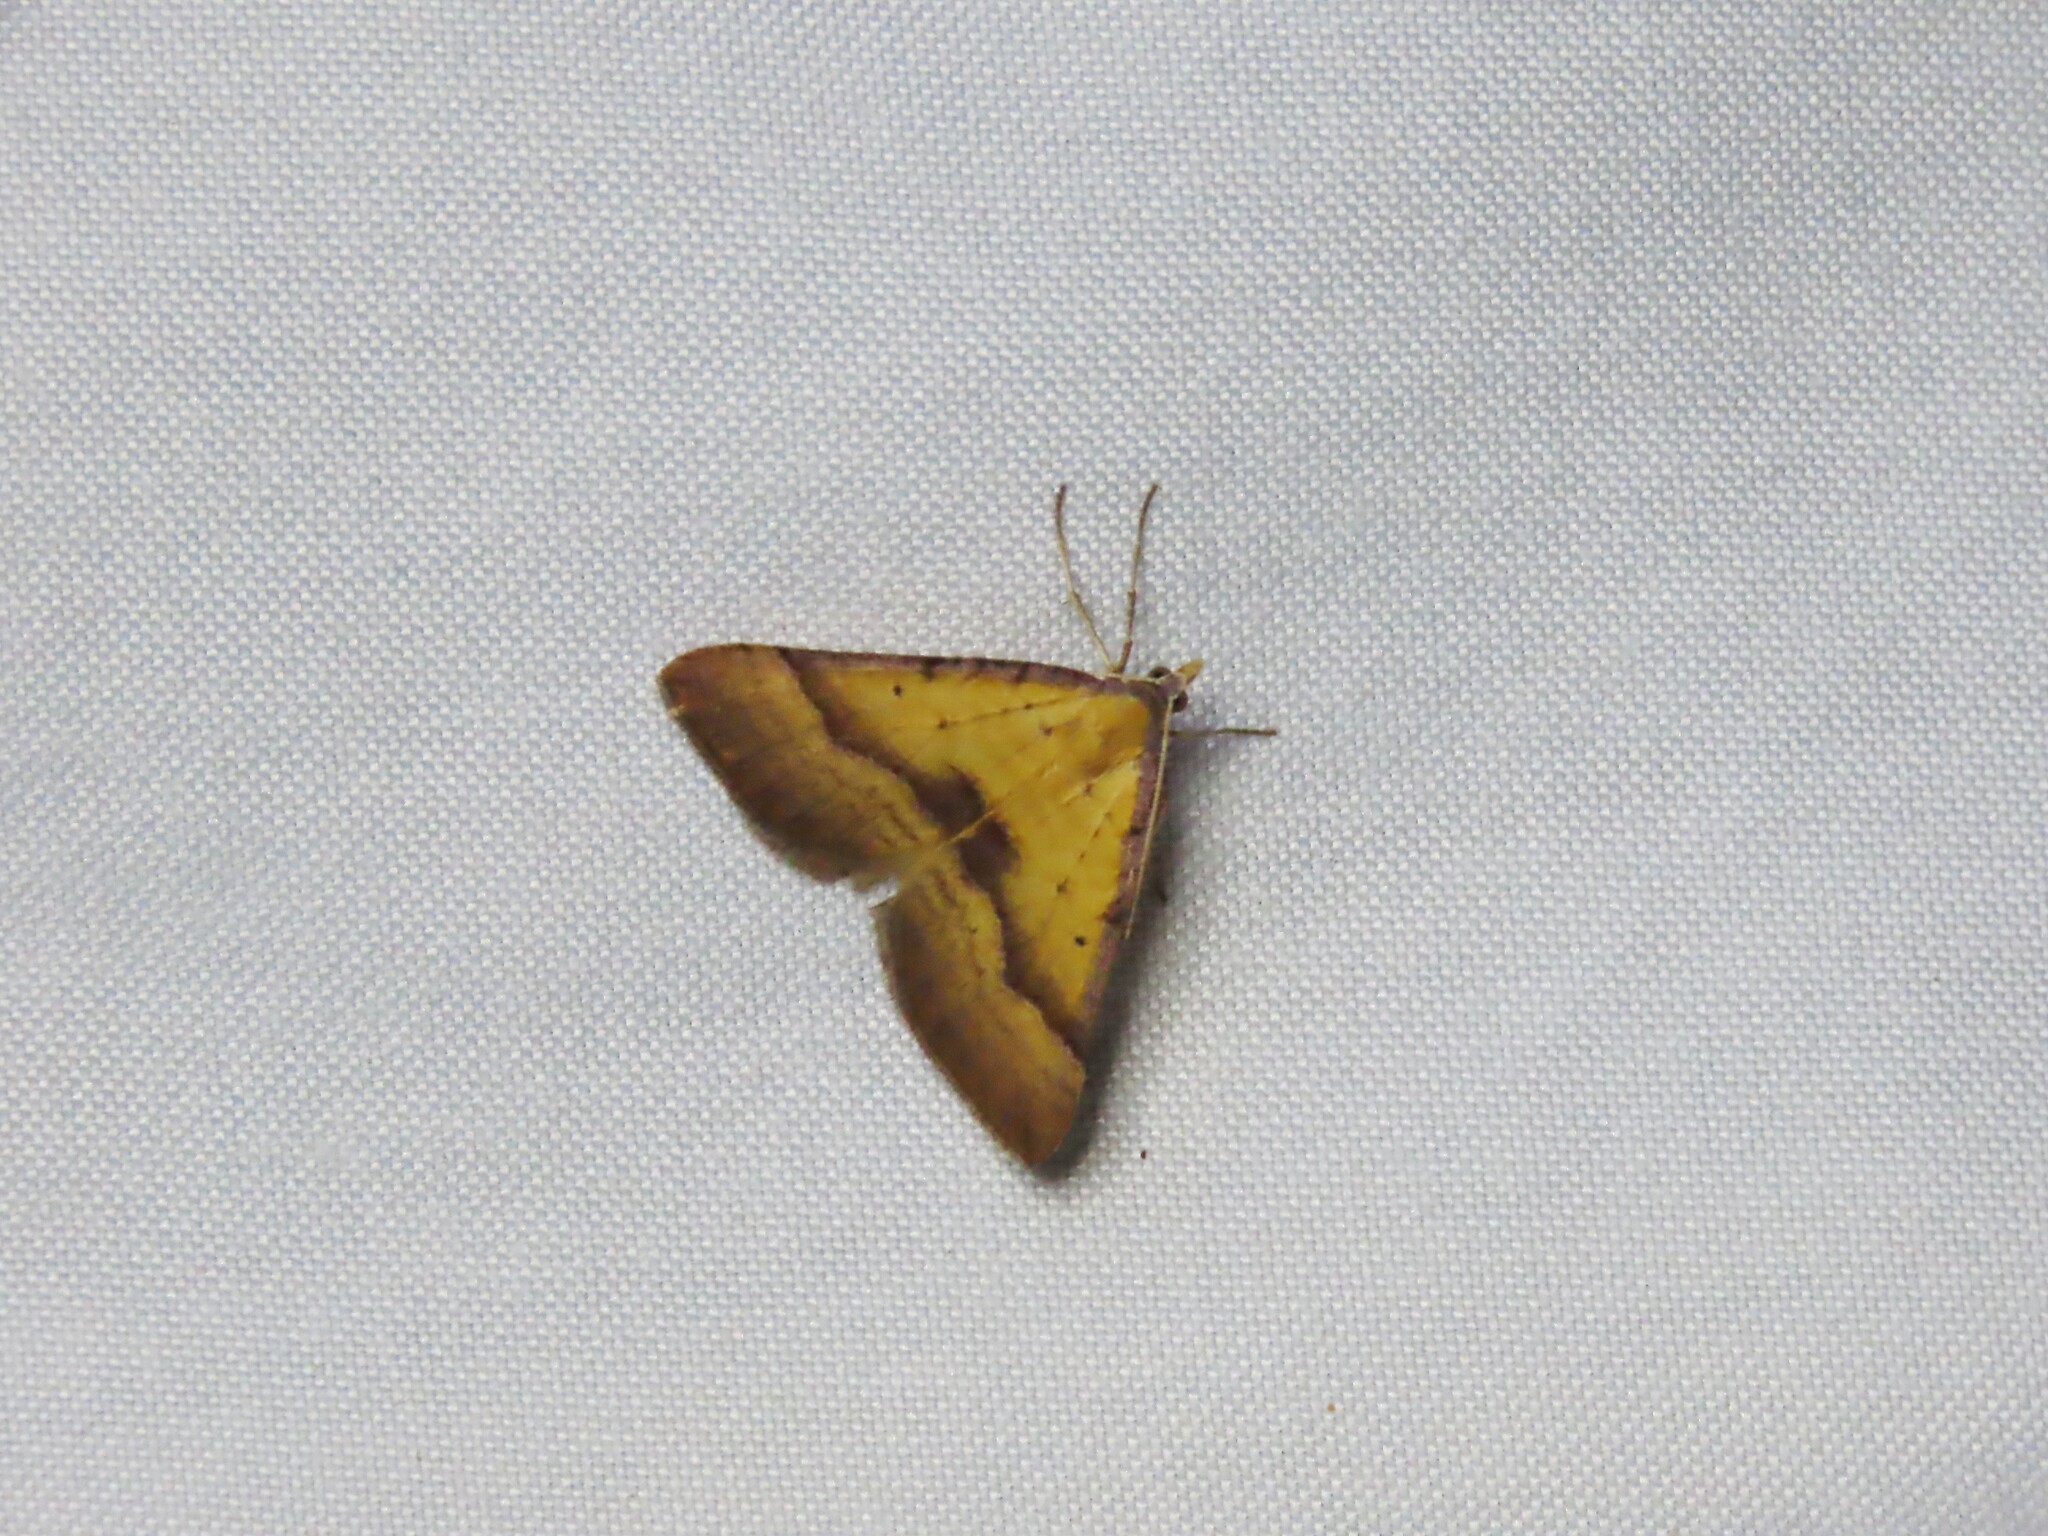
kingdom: Animalia
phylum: Arthropoda
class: Insecta
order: Lepidoptera
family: Geometridae
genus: Anachloris
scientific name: Anachloris subochraria
